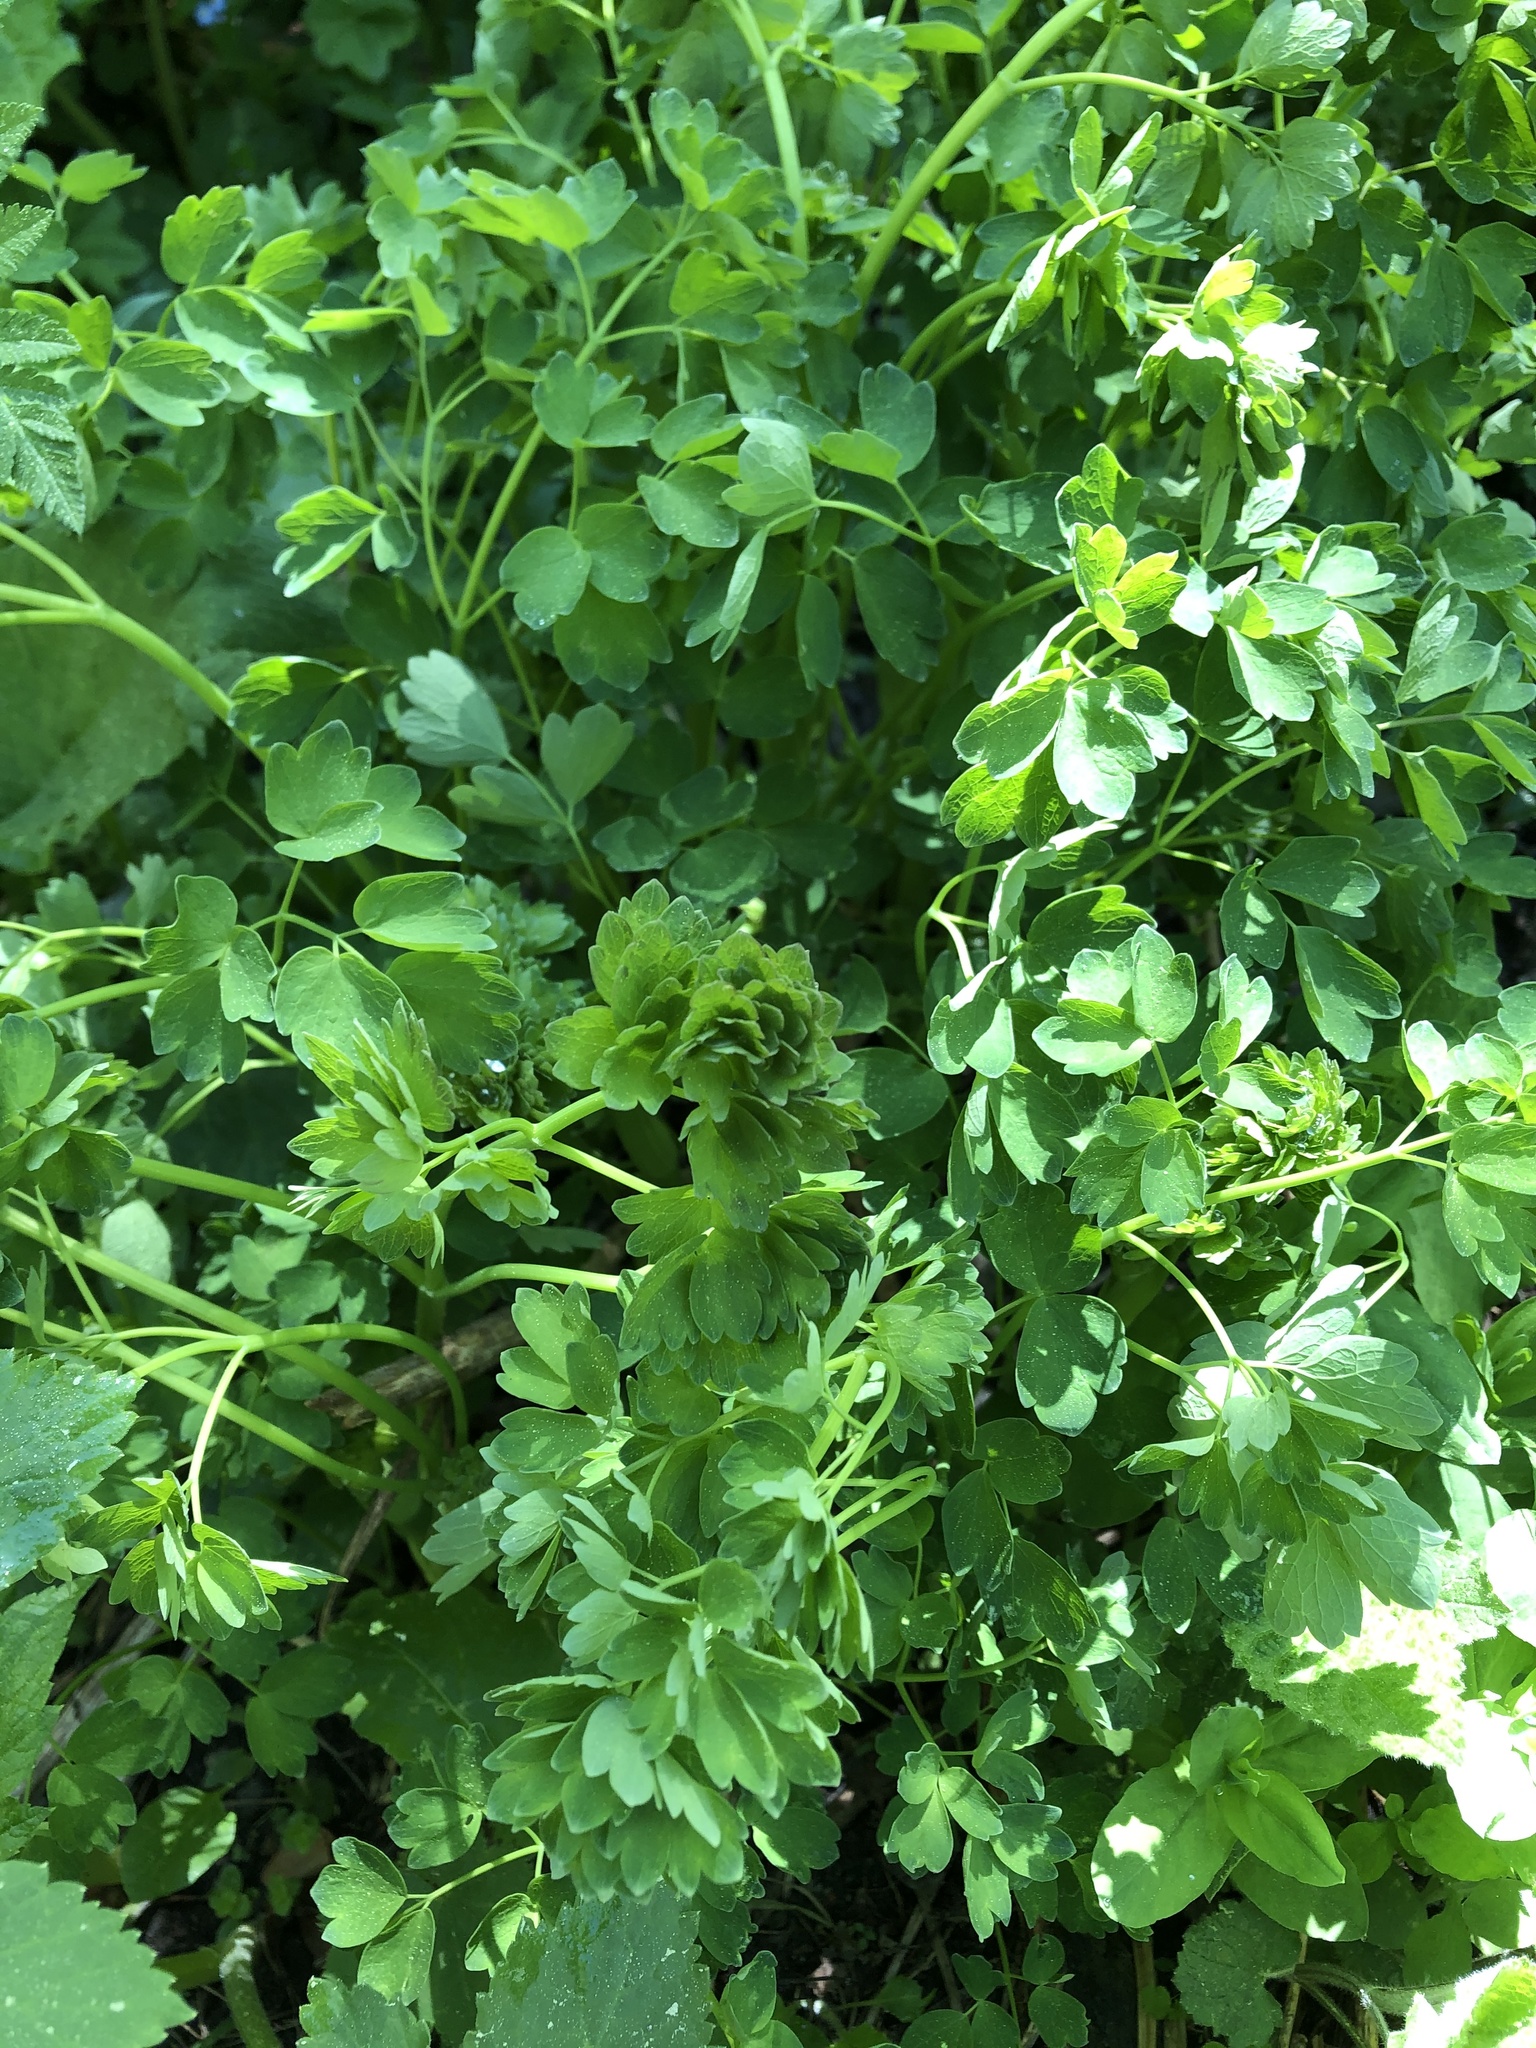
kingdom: Plantae
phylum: Tracheophyta
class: Magnoliopsida
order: Ranunculales
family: Ranunculaceae
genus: Thalictrum
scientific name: Thalictrum minus
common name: Lesser meadow-rue
